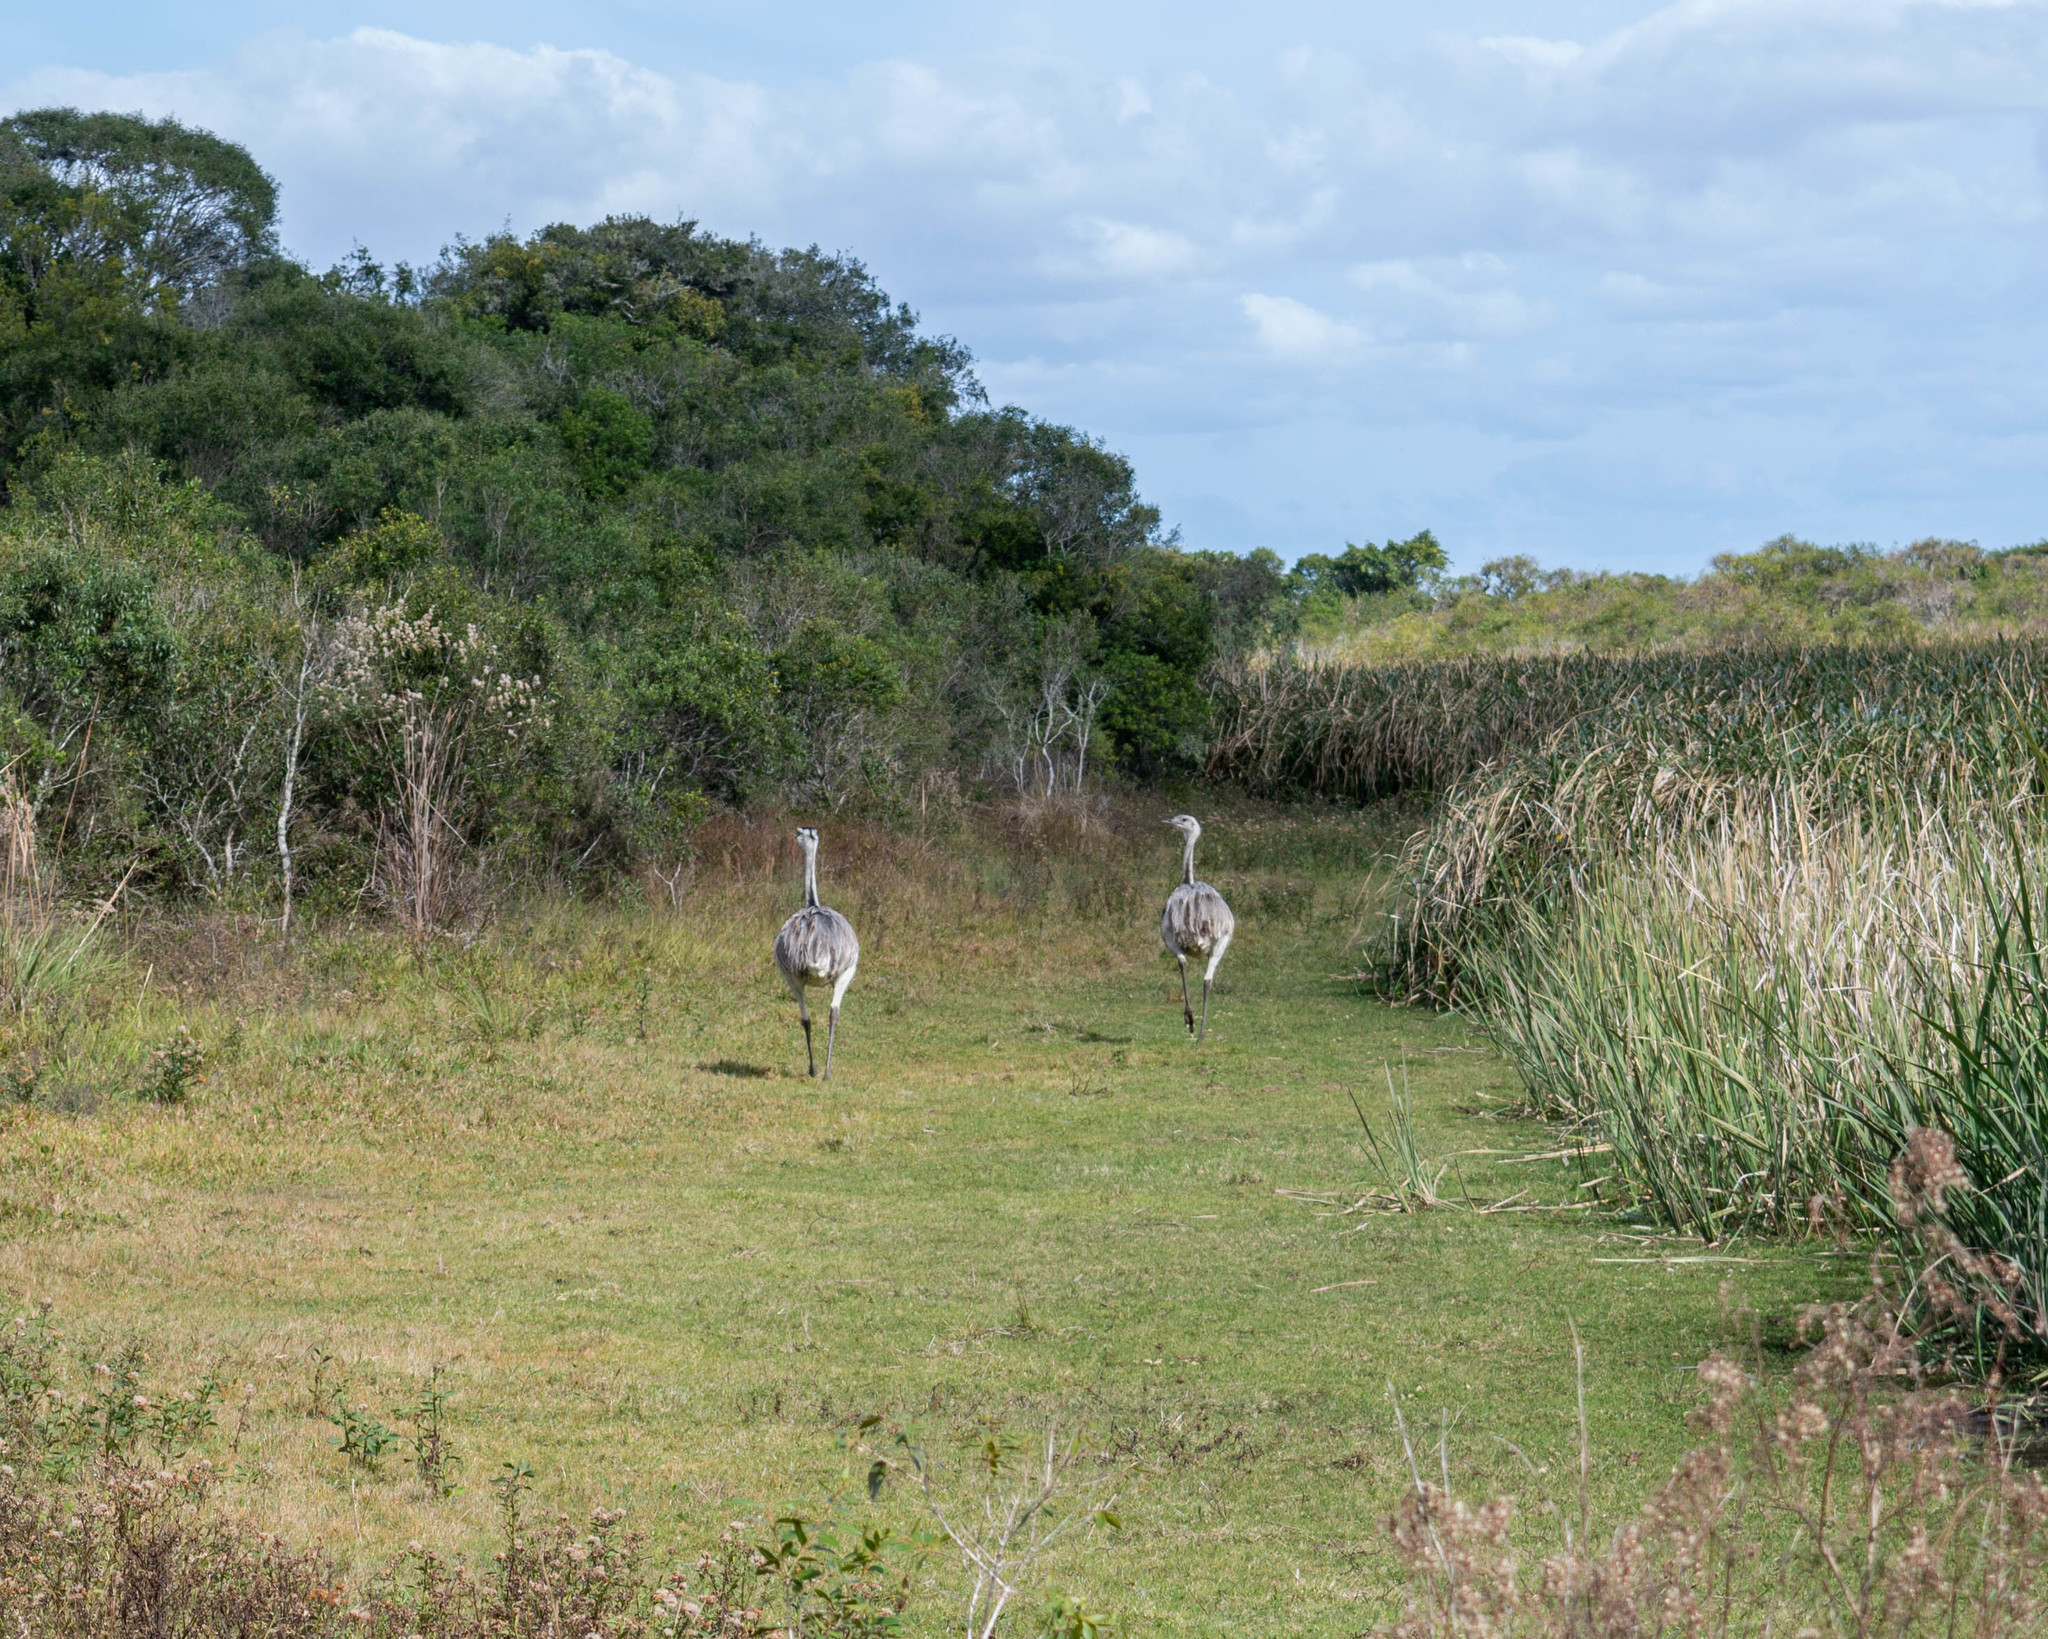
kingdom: Animalia
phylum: Chordata
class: Aves
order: Rheiformes
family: Rheidae
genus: Rhea
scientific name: Rhea americana
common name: Greater rhea
